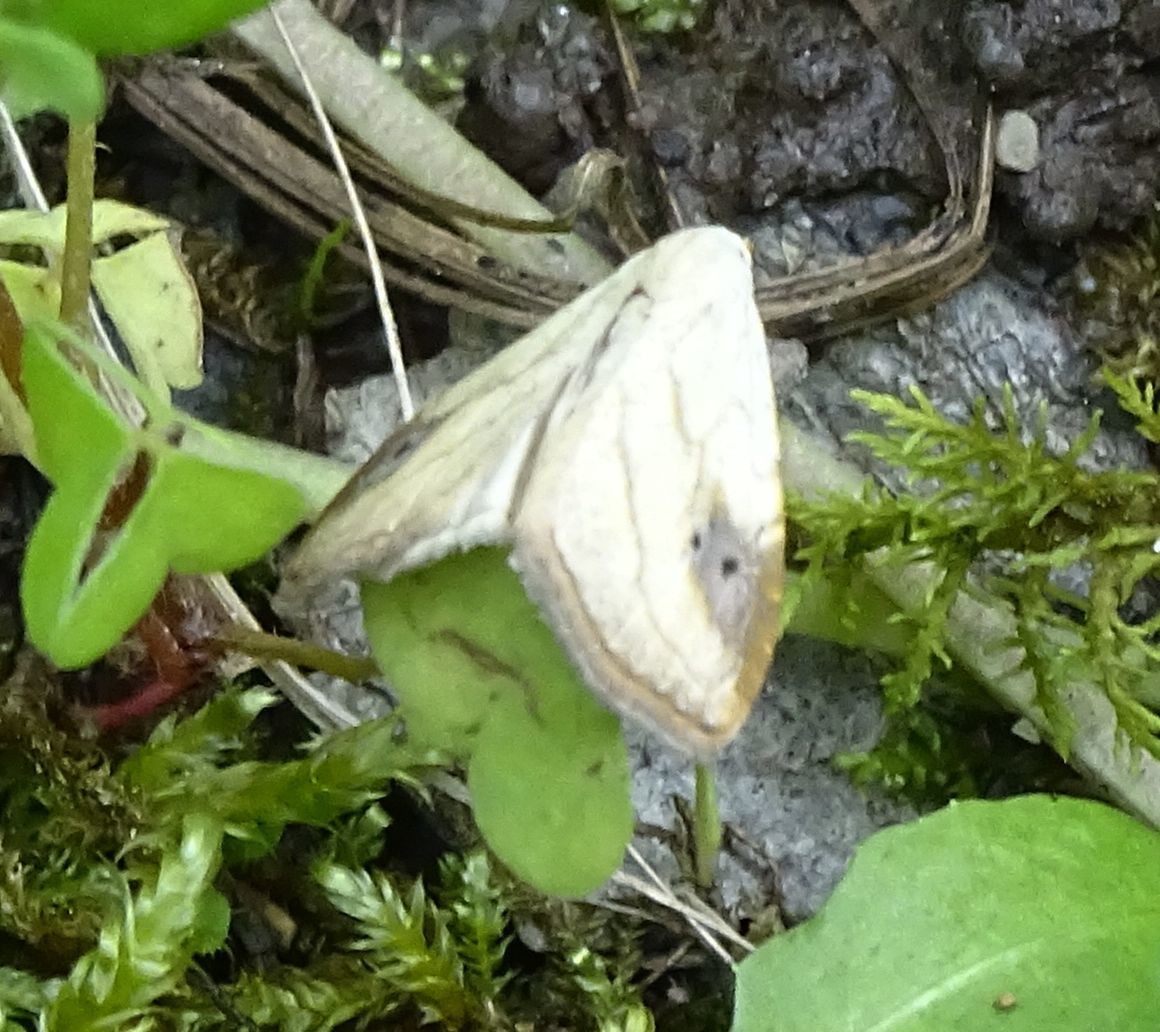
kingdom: Animalia
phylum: Arthropoda
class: Insecta
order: Lepidoptera
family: Erebidae
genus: Rivula
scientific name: Rivula propinqualis
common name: Spotted grass moth
